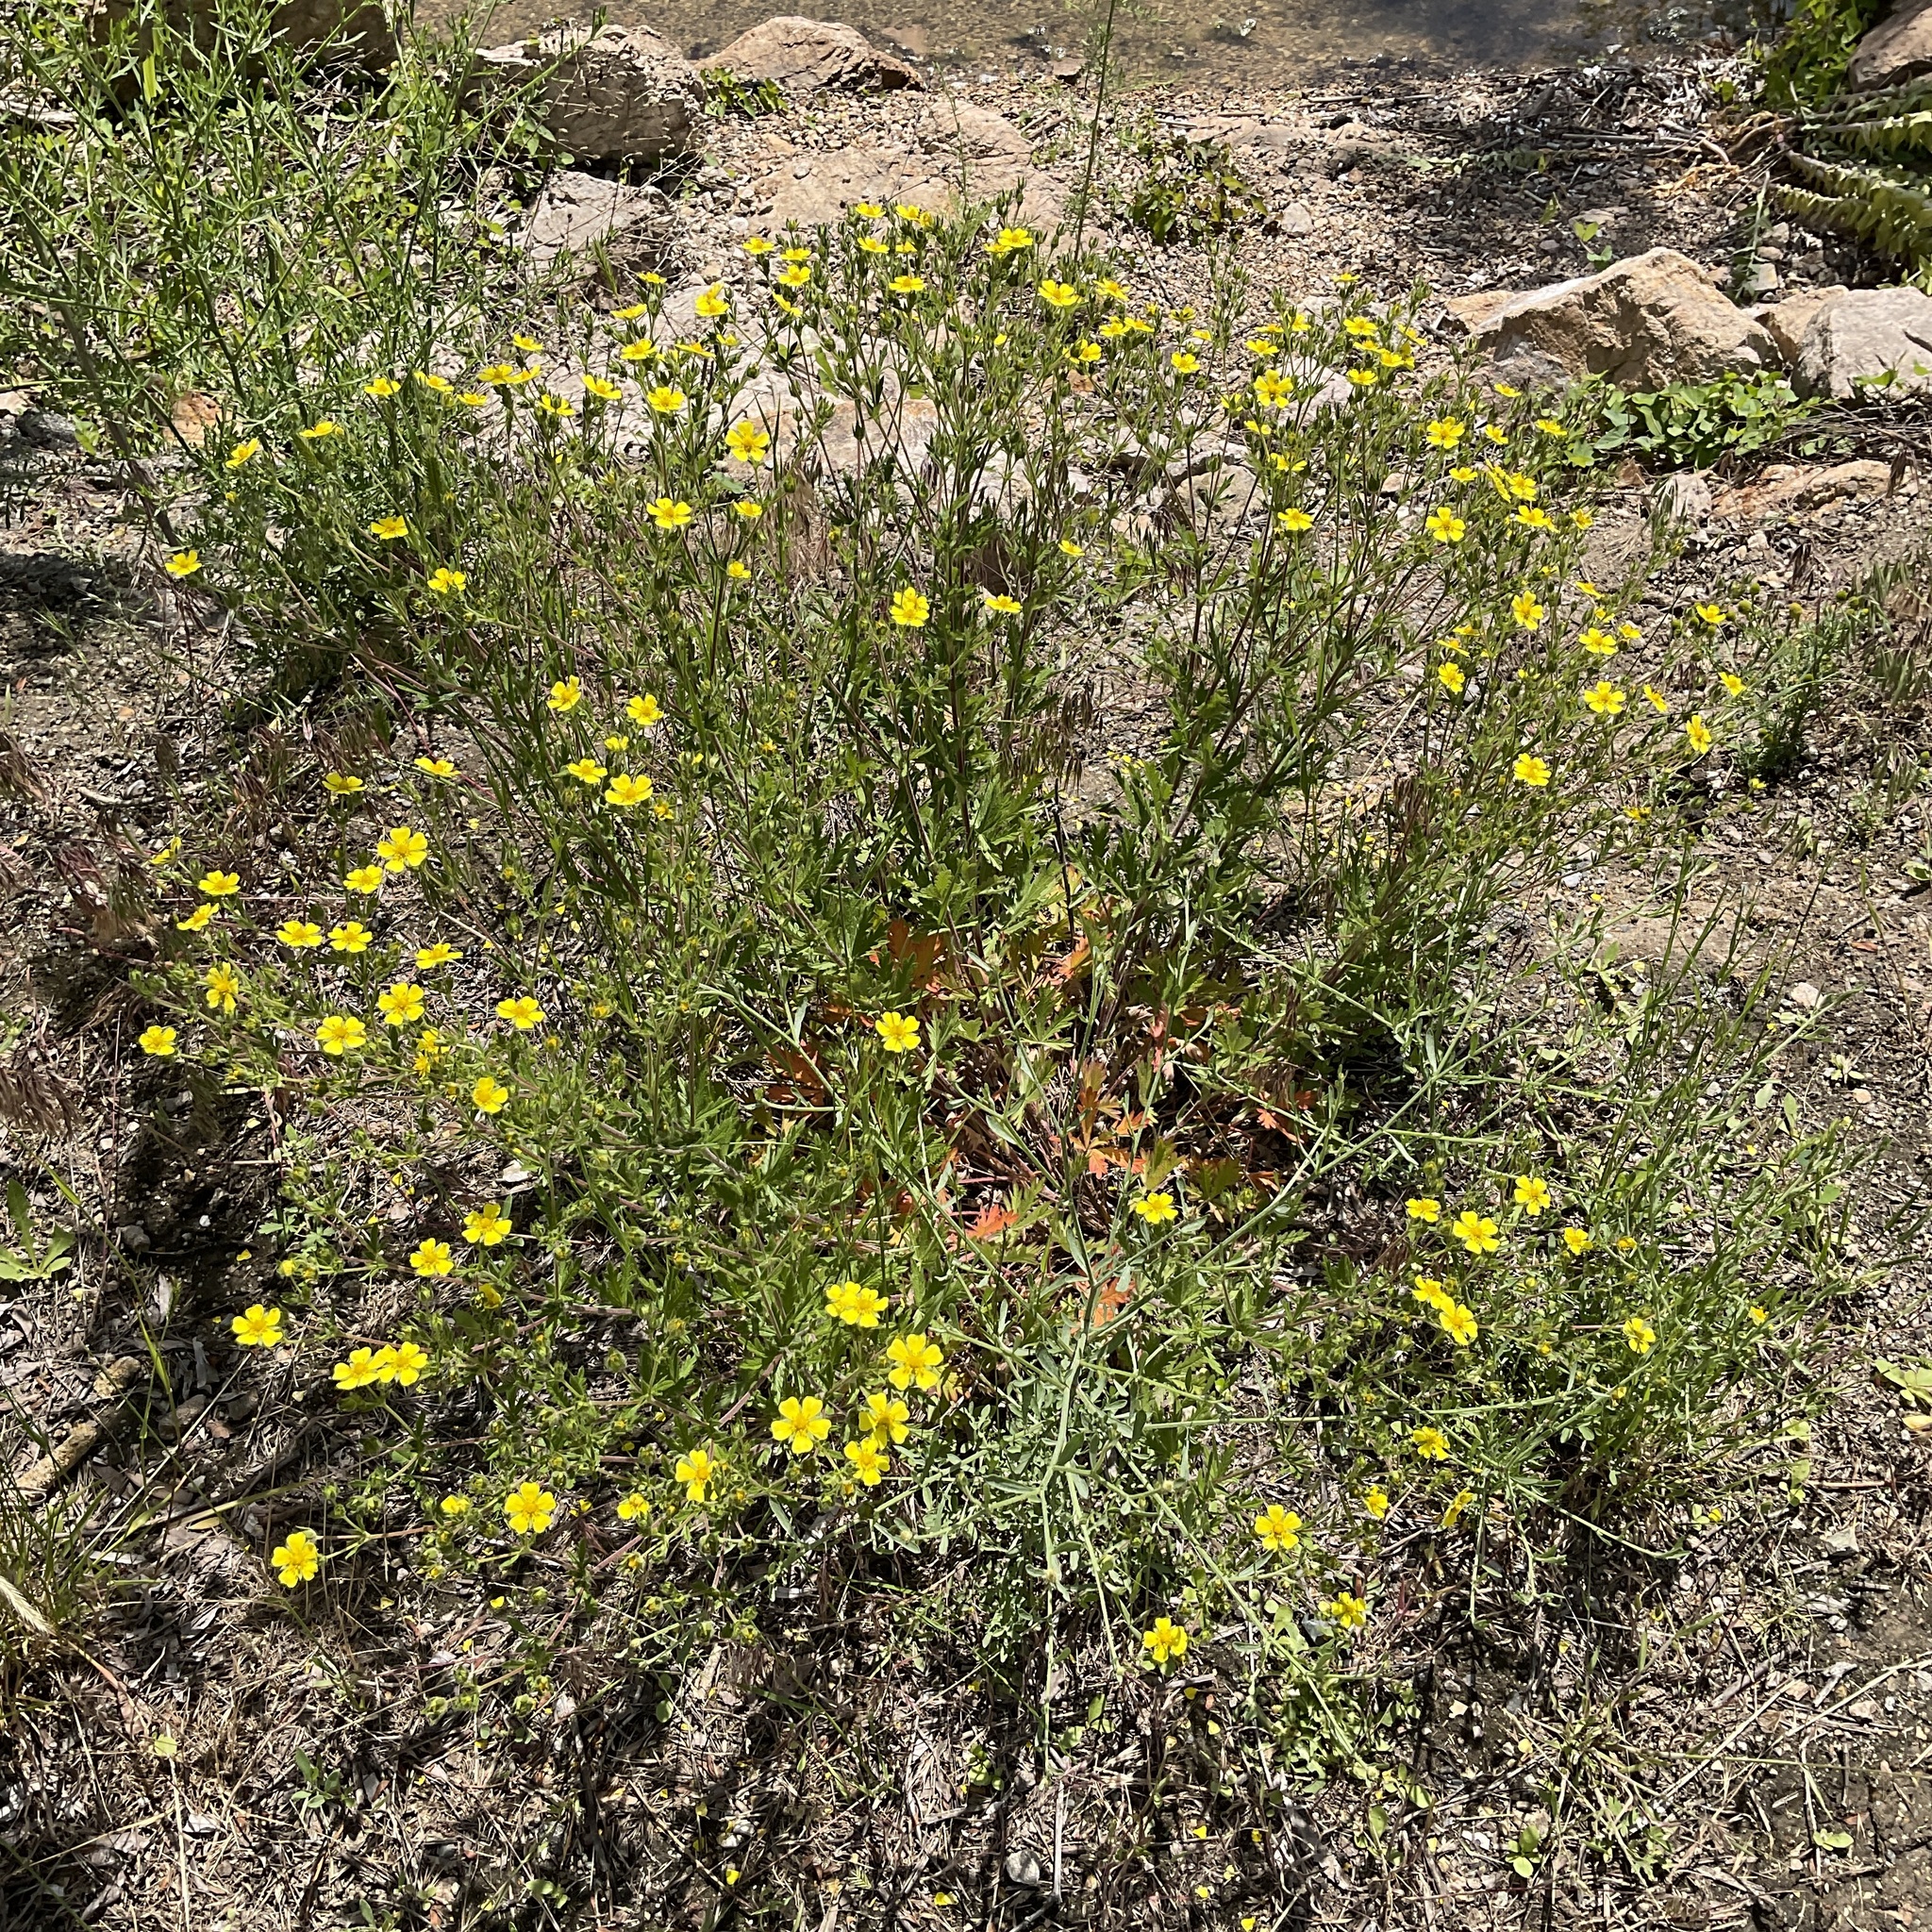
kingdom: Plantae
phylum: Tracheophyta
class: Magnoliopsida
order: Rosales
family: Rosaceae
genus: Potentilla
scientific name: Potentilla argentea
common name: Hoary cinquefoil
